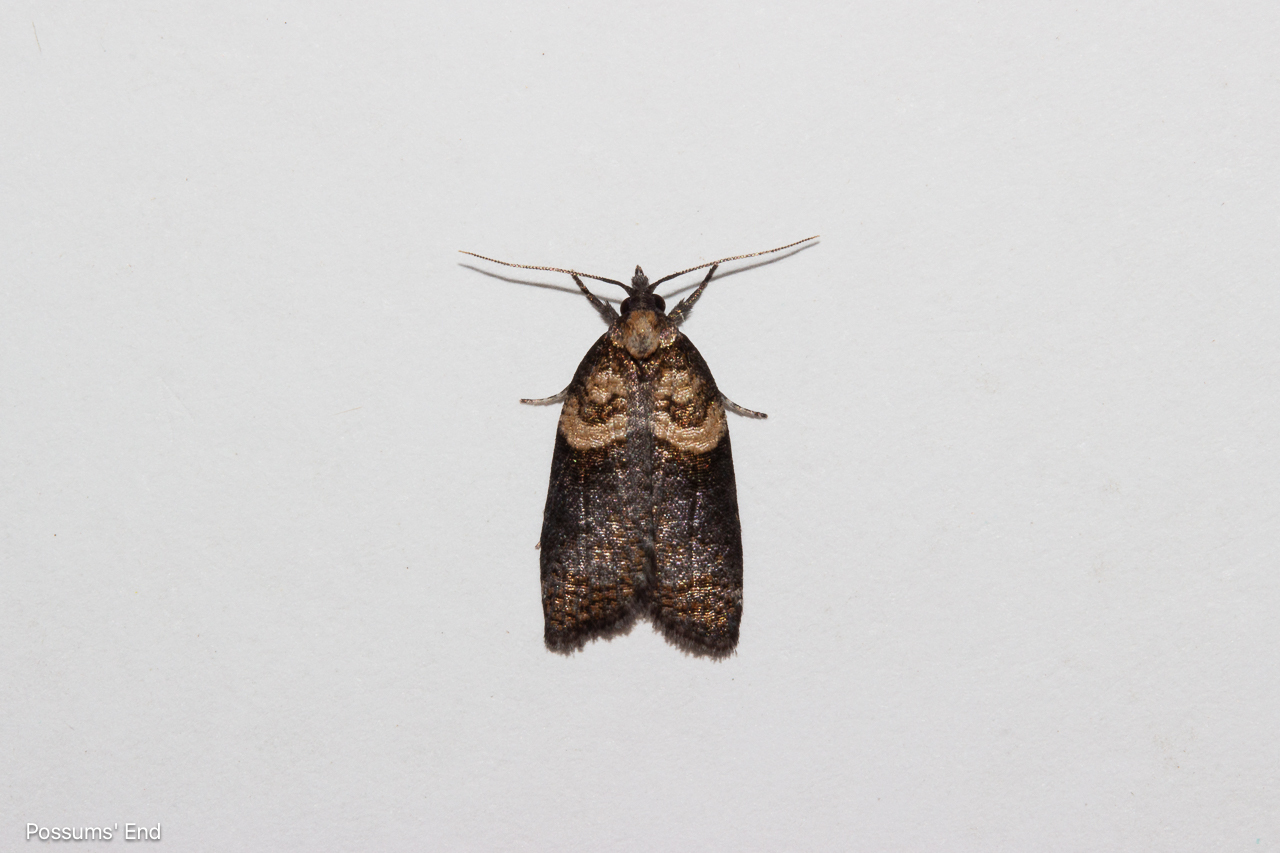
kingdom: Animalia
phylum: Arthropoda
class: Insecta
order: Lepidoptera
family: Tortricidae
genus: Maoritenes
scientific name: Maoritenes cyclobathra
